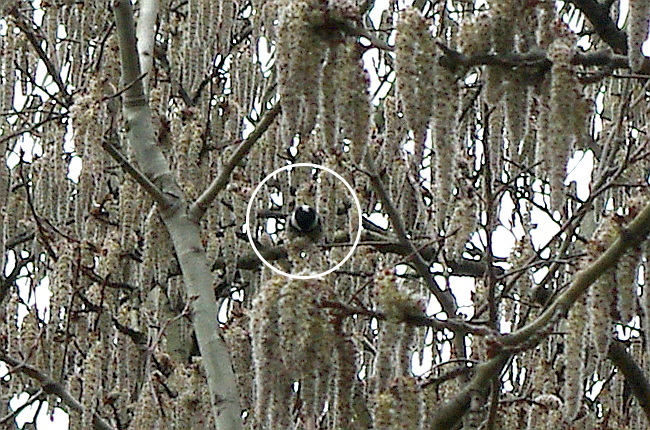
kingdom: Animalia
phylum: Chordata
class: Aves
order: Passeriformes
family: Paridae
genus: Periparus
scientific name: Periparus ater
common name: Coal tit
